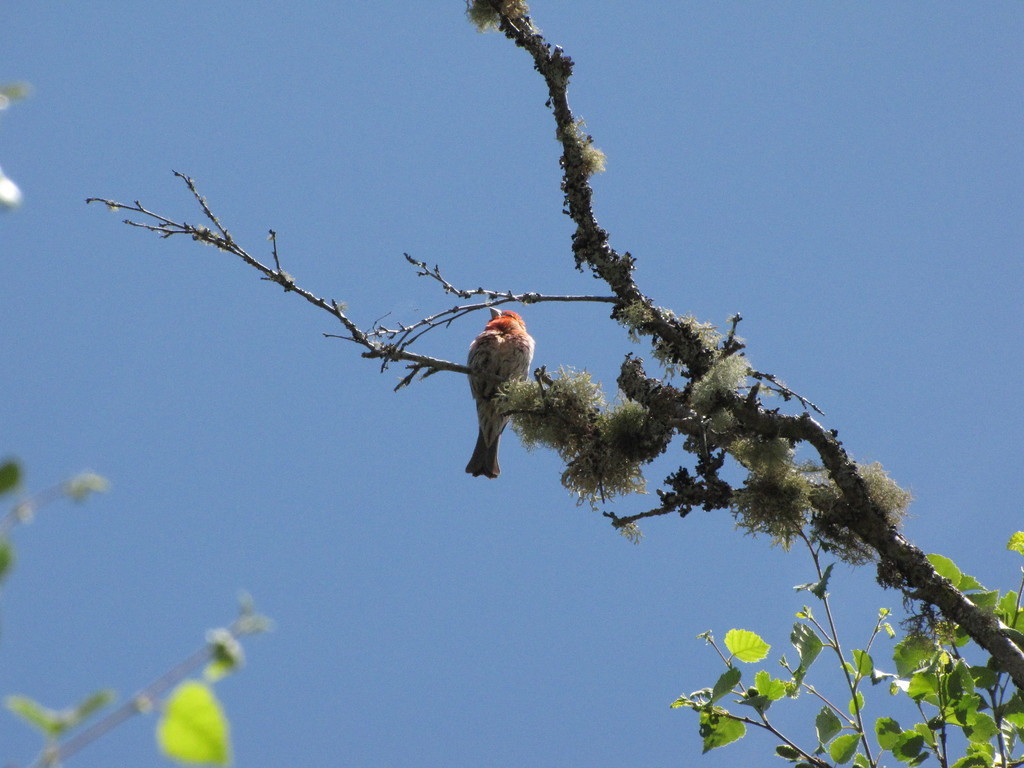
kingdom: Animalia
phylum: Chordata
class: Aves
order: Passeriformes
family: Fringillidae
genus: Haemorhous
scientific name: Haemorhous mexicanus
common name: House finch
